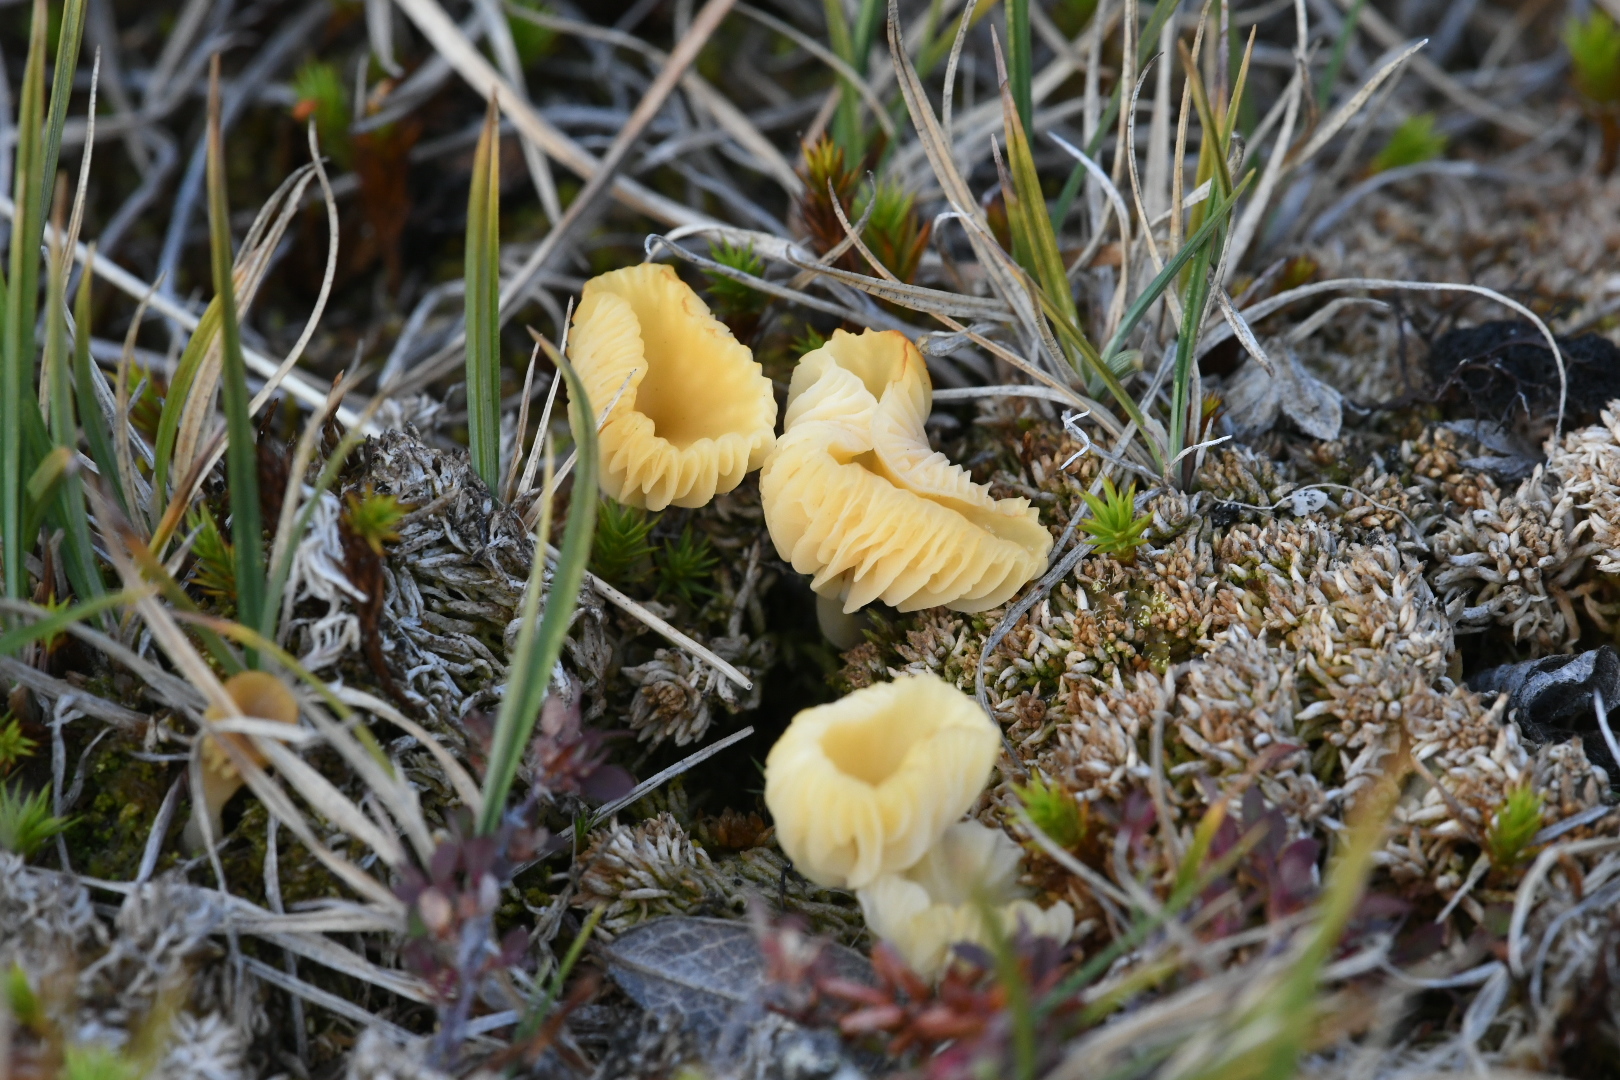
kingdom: Fungi
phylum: Basidiomycota
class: Agaricomycetes
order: Agaricales
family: Hygrophoraceae
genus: Lichenomphalia
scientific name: Lichenomphalia
